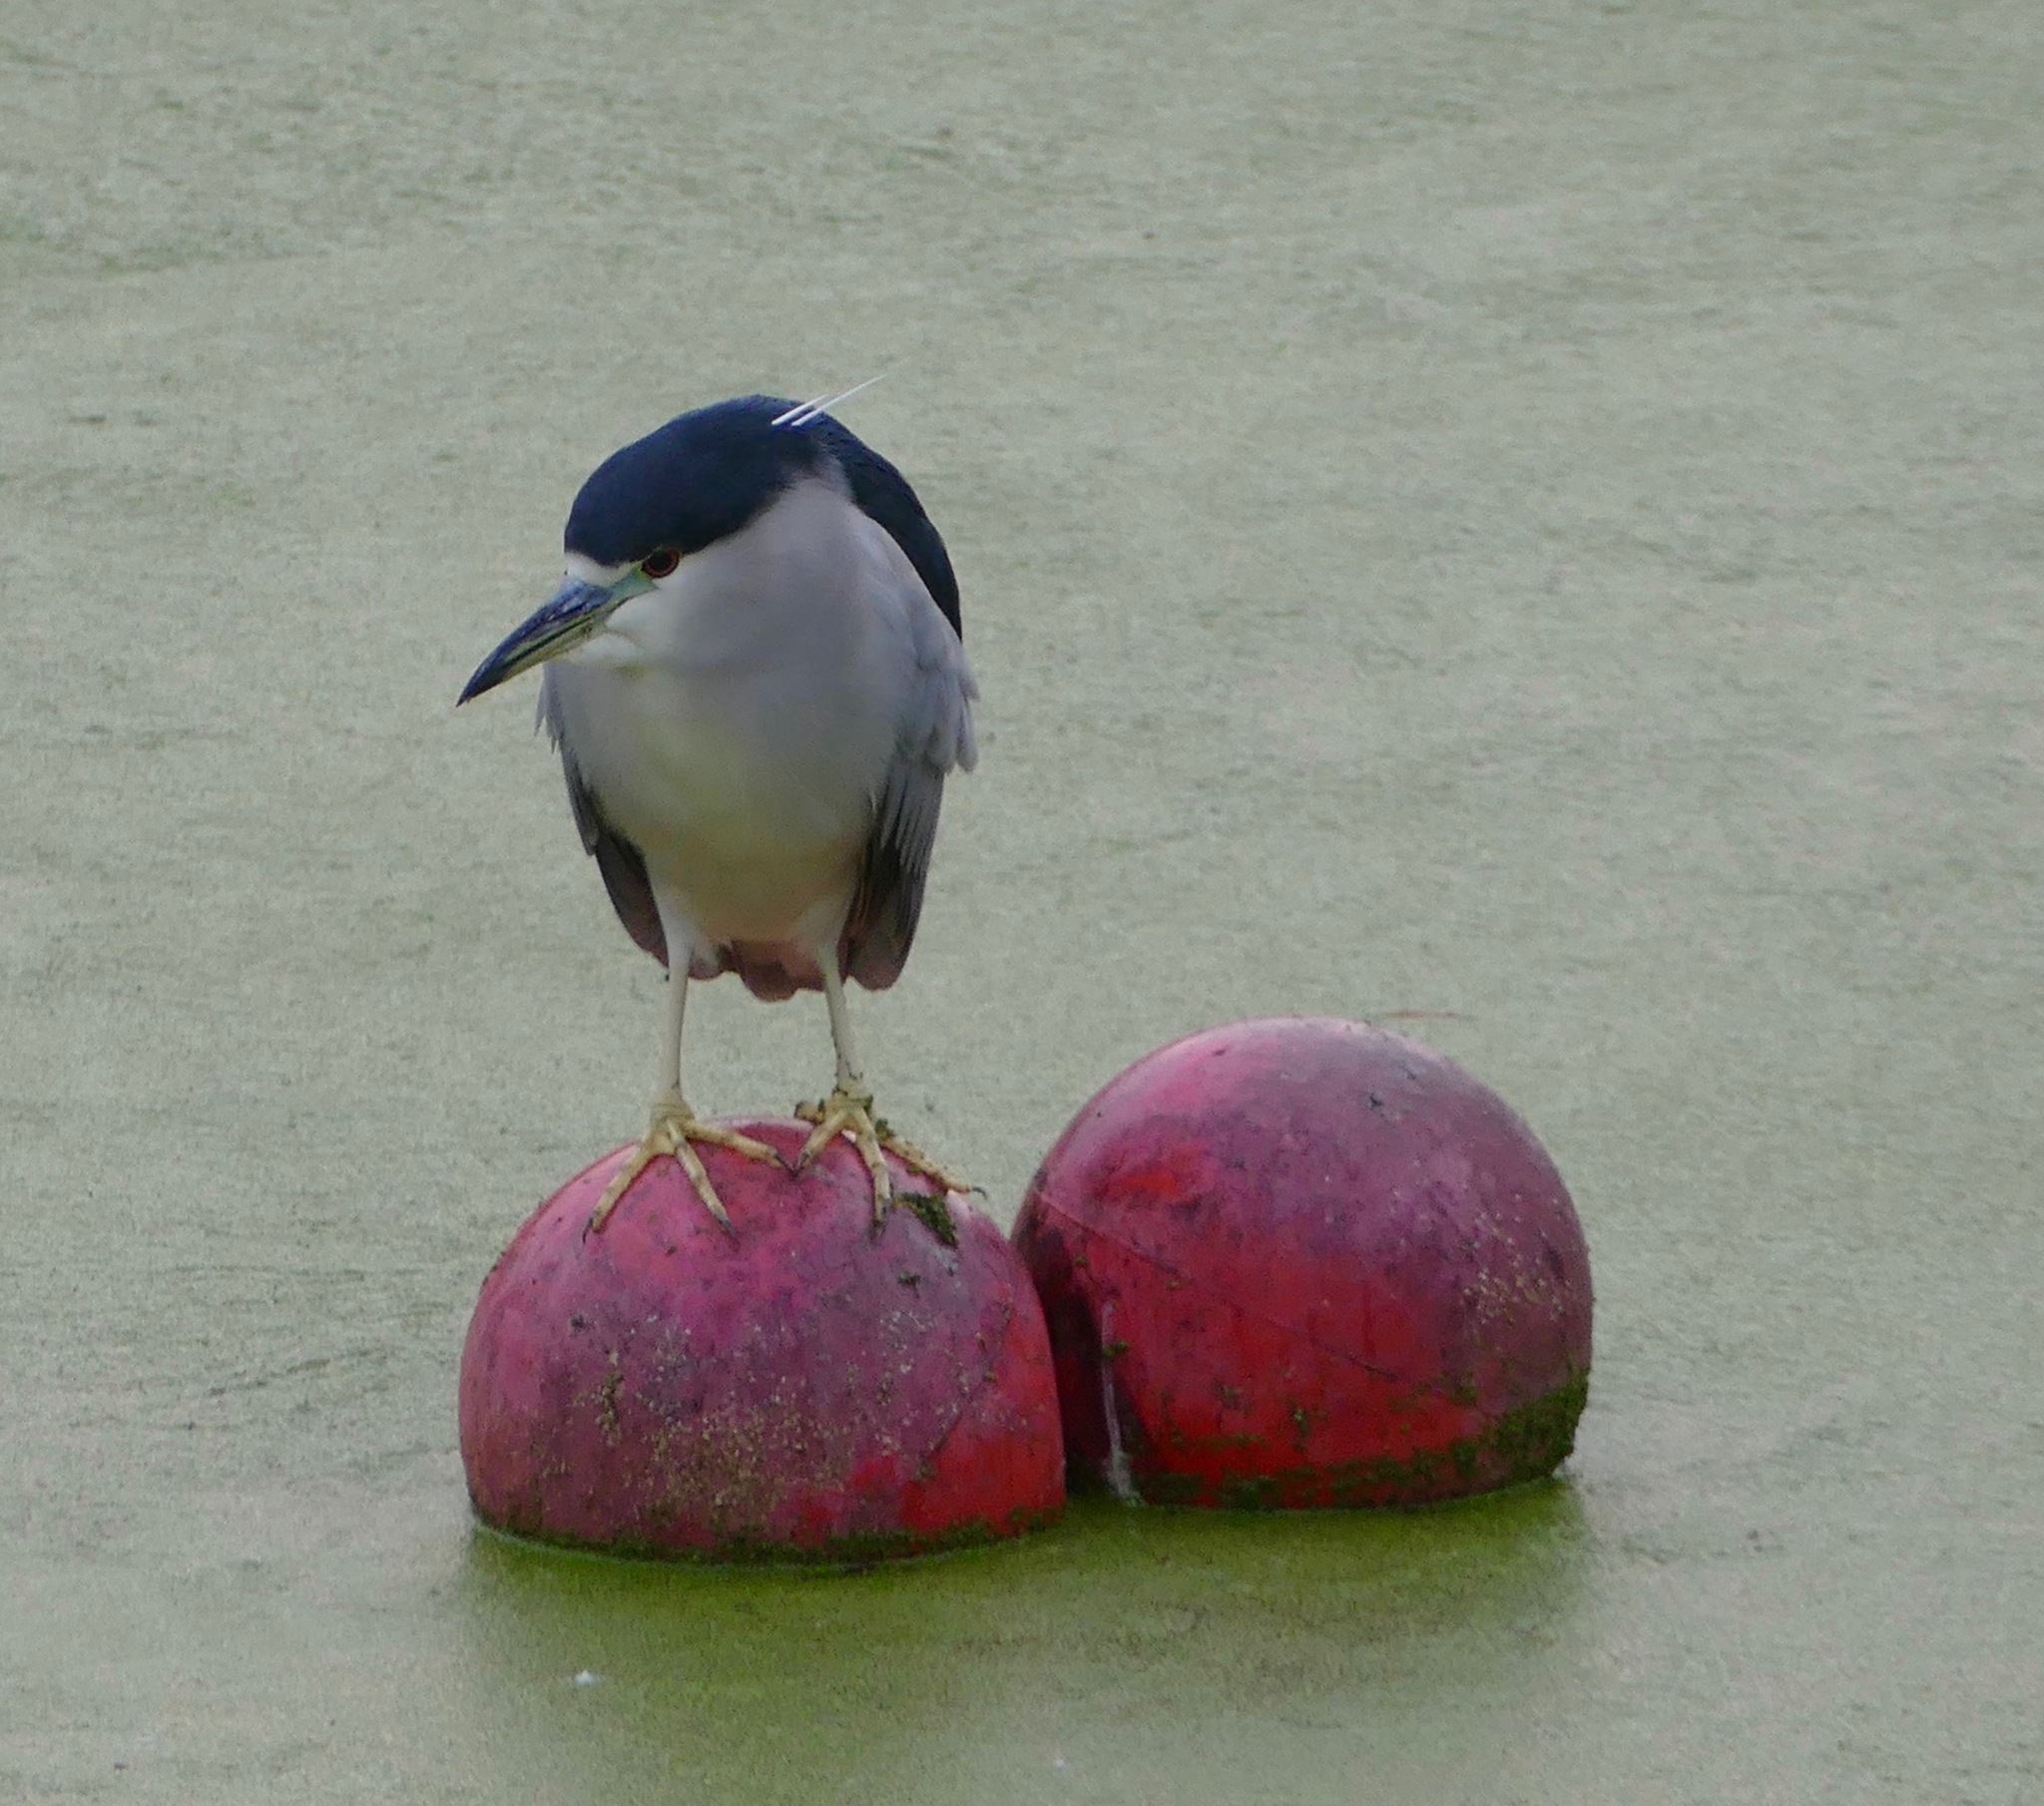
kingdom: Animalia
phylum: Chordata
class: Aves
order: Pelecaniformes
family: Ardeidae
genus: Nycticorax
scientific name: Nycticorax nycticorax
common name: Black-crowned night heron
